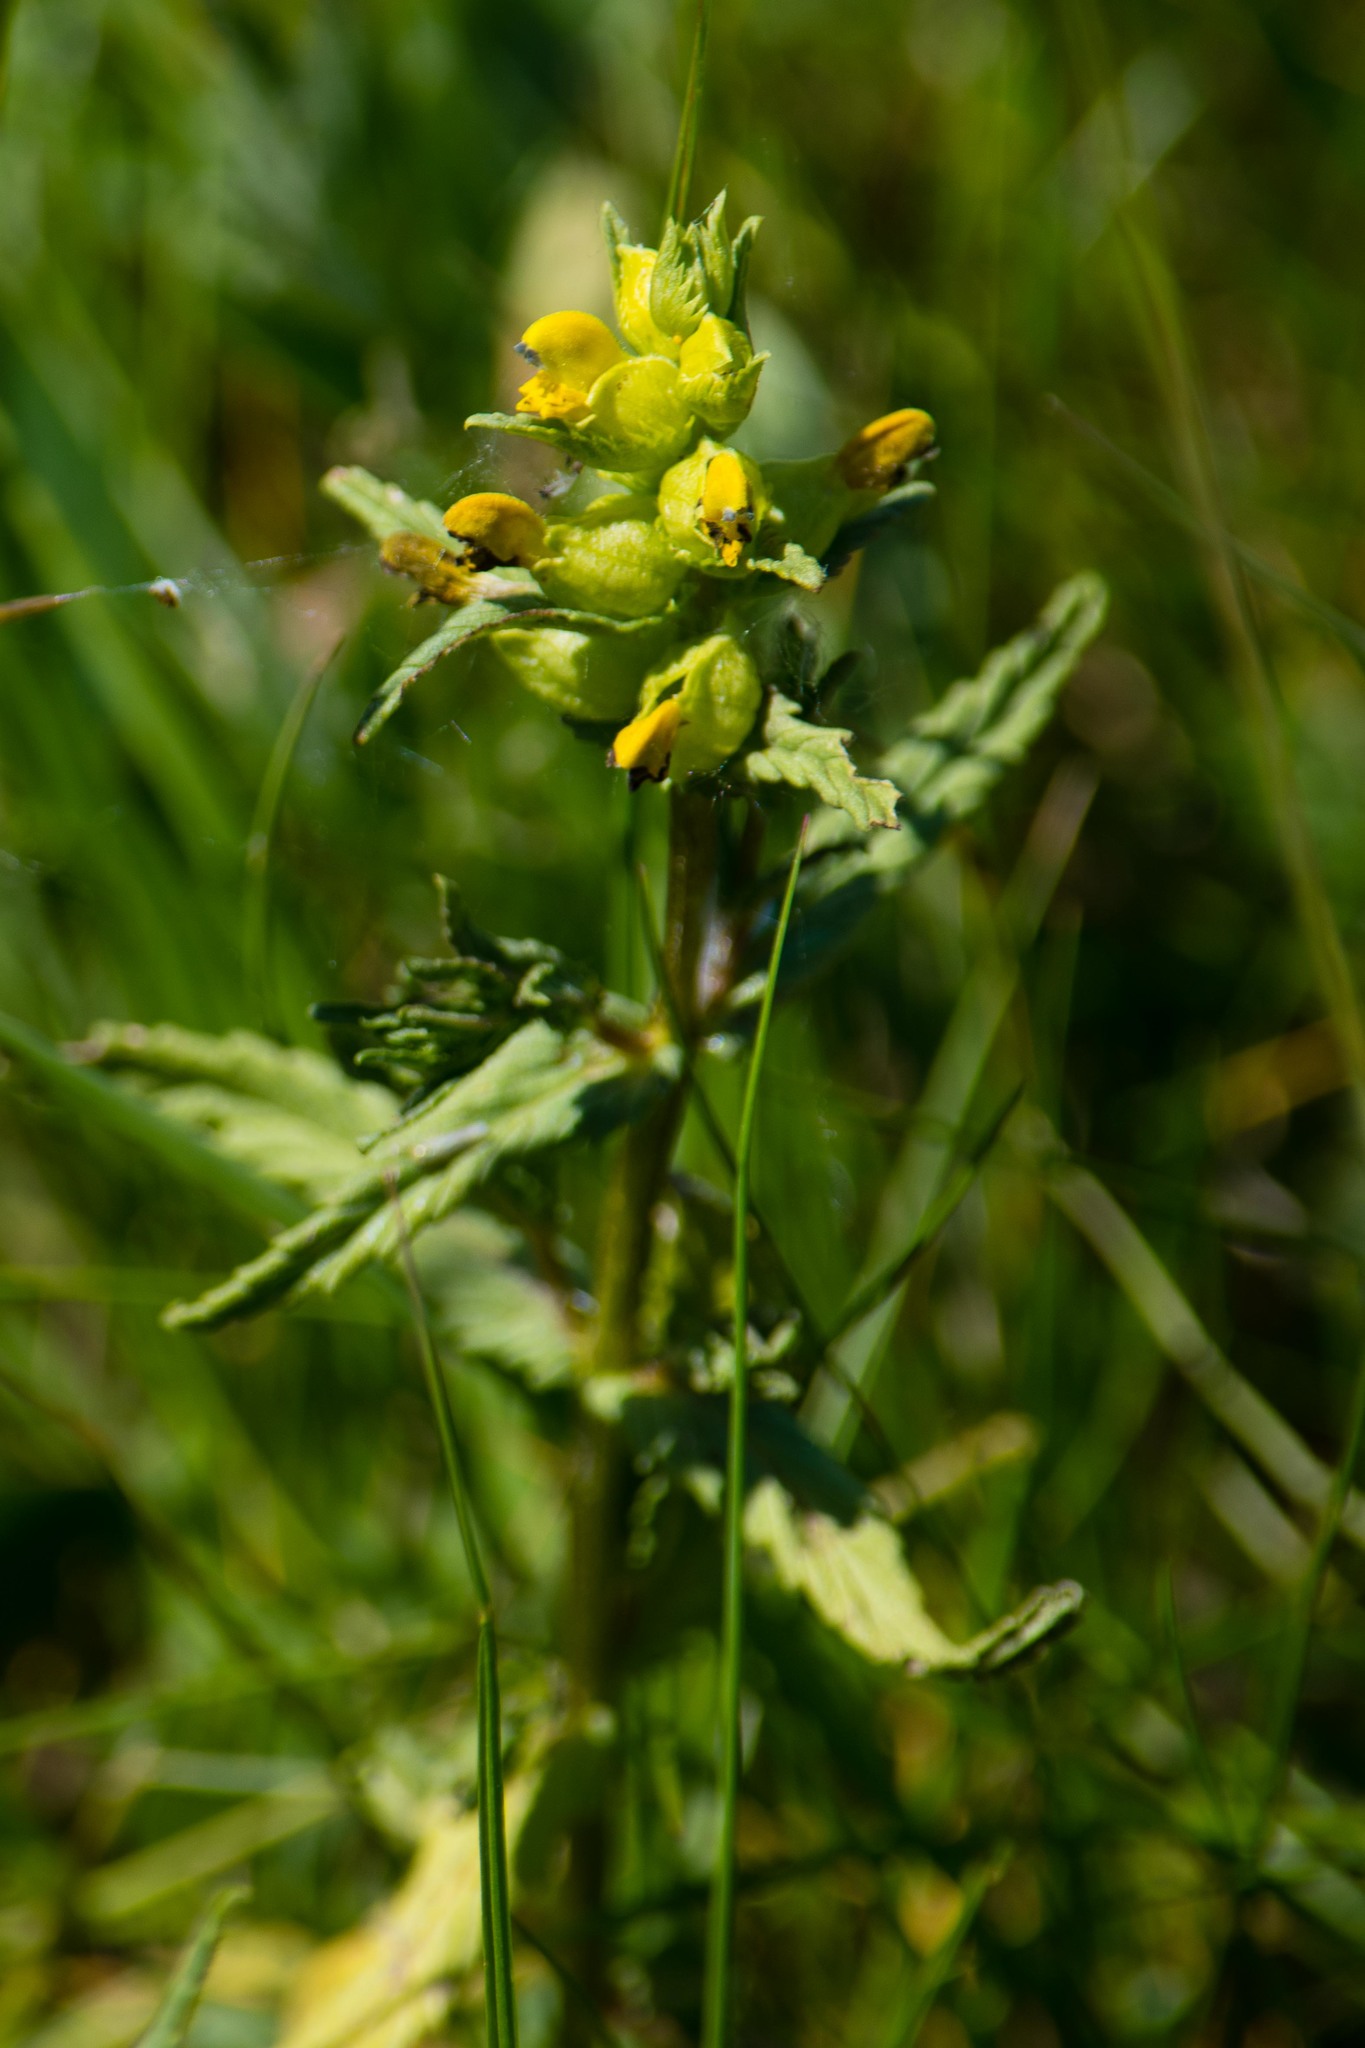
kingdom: Plantae
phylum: Tracheophyta
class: Magnoliopsida
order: Lamiales
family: Orobanchaceae
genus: Rhinanthus
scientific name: Rhinanthus minor
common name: Yellow-rattle
